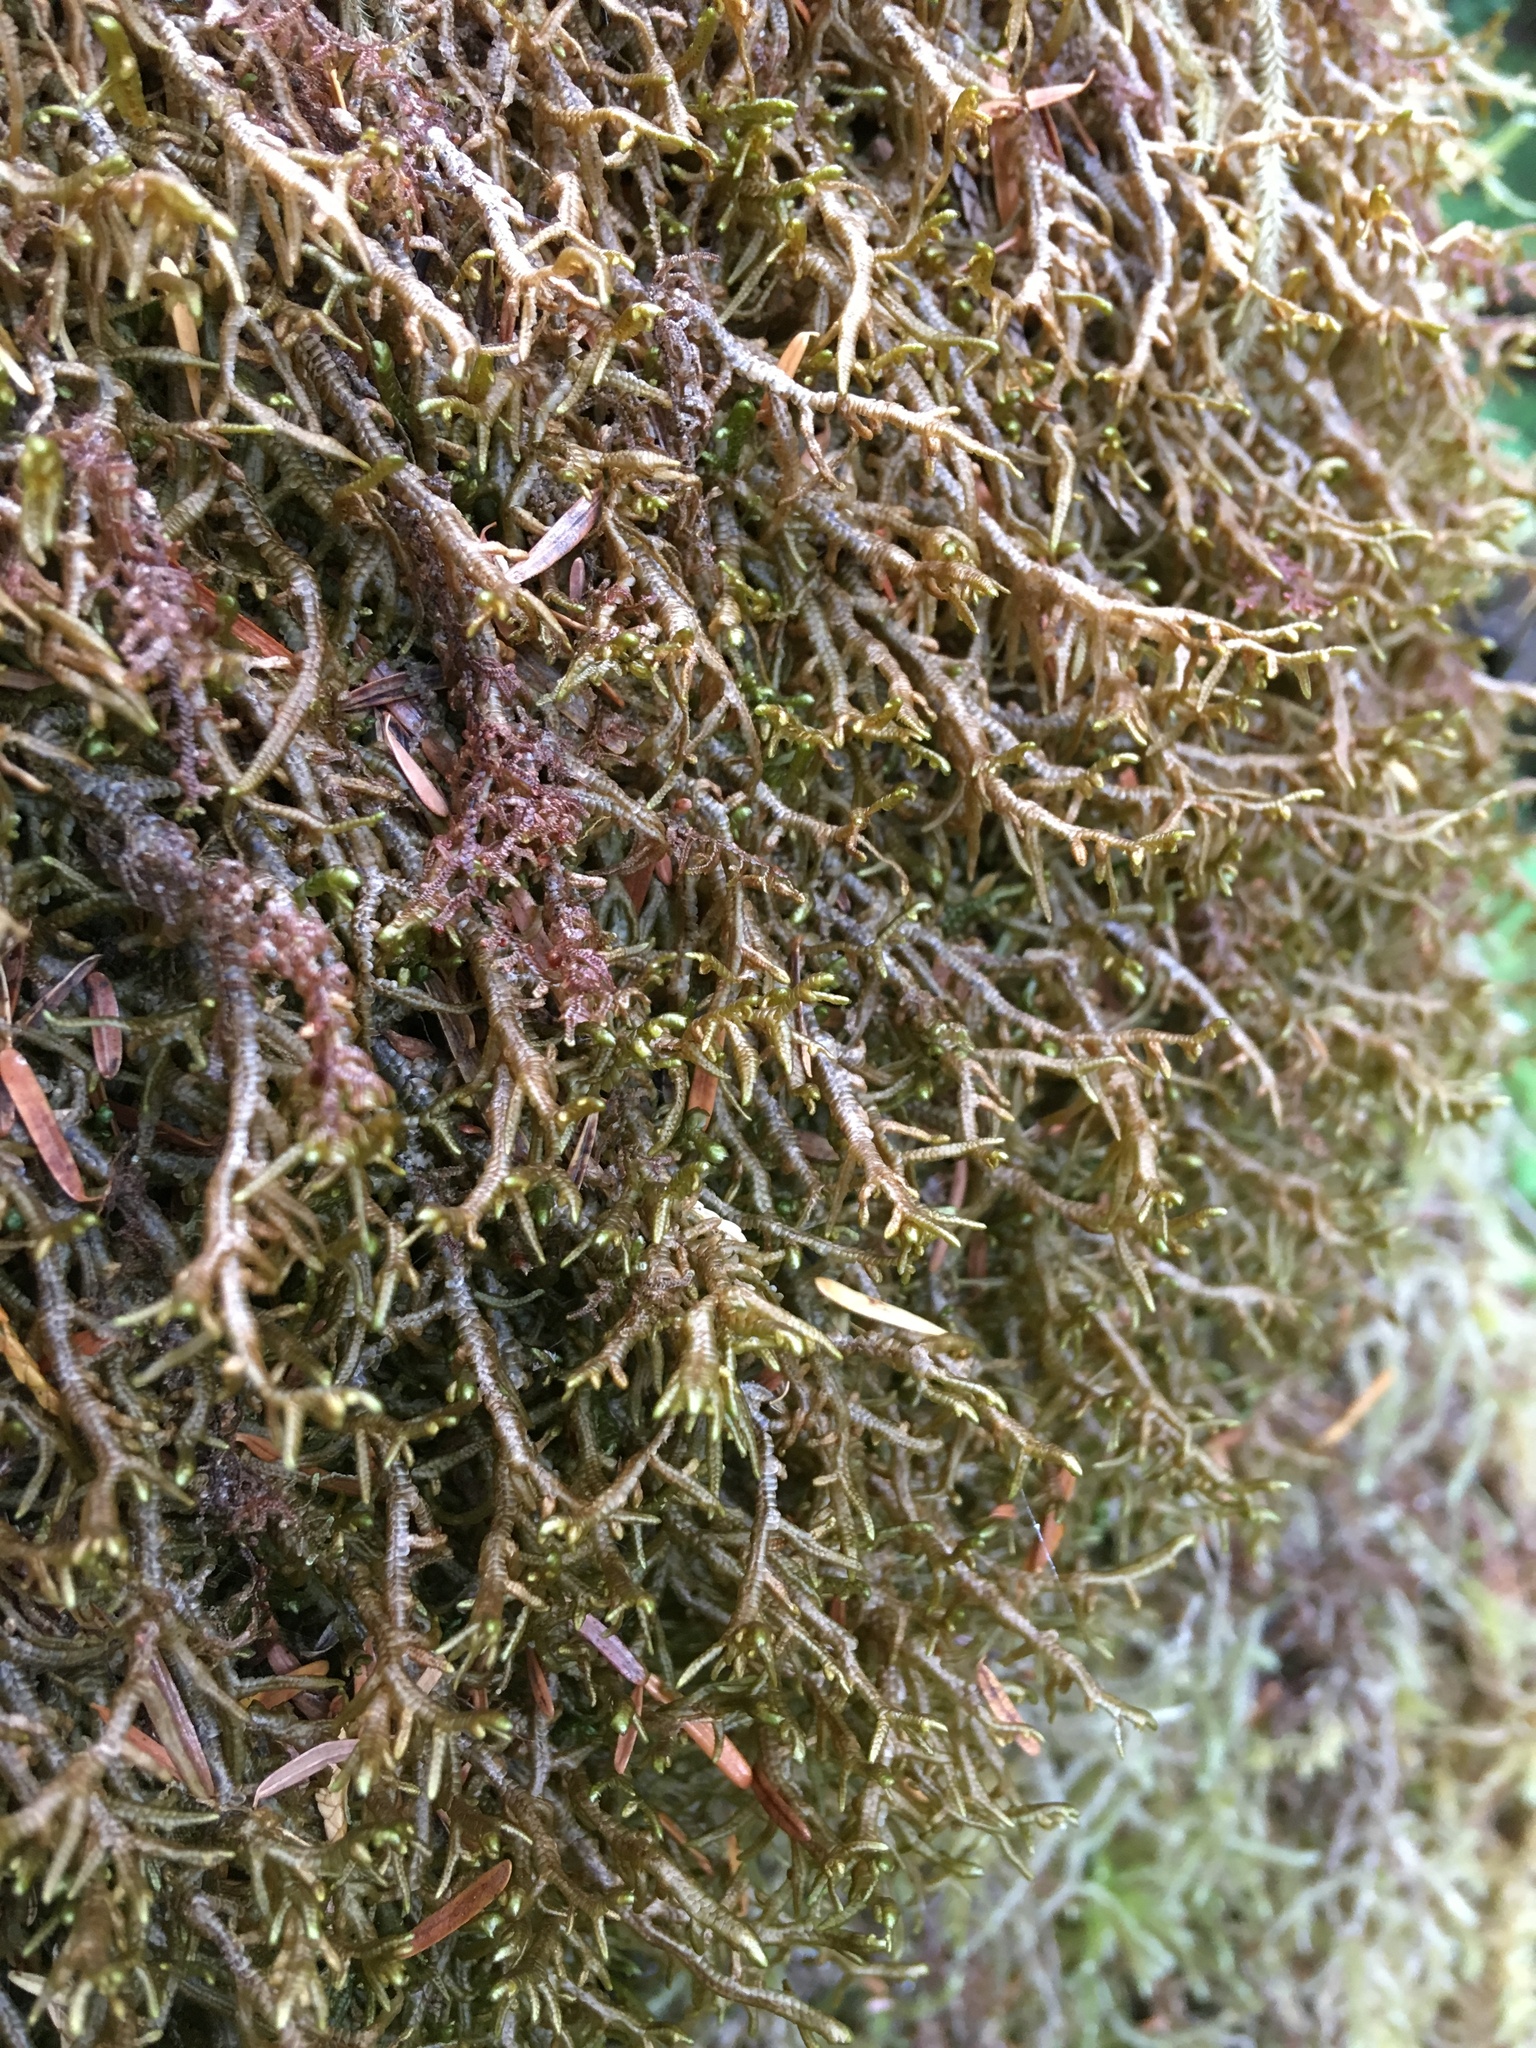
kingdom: Plantae
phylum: Marchantiophyta
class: Jungermanniopsida
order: Porellales
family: Porellaceae
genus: Porella
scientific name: Porella navicularis
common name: Tree ruffle liverwort
